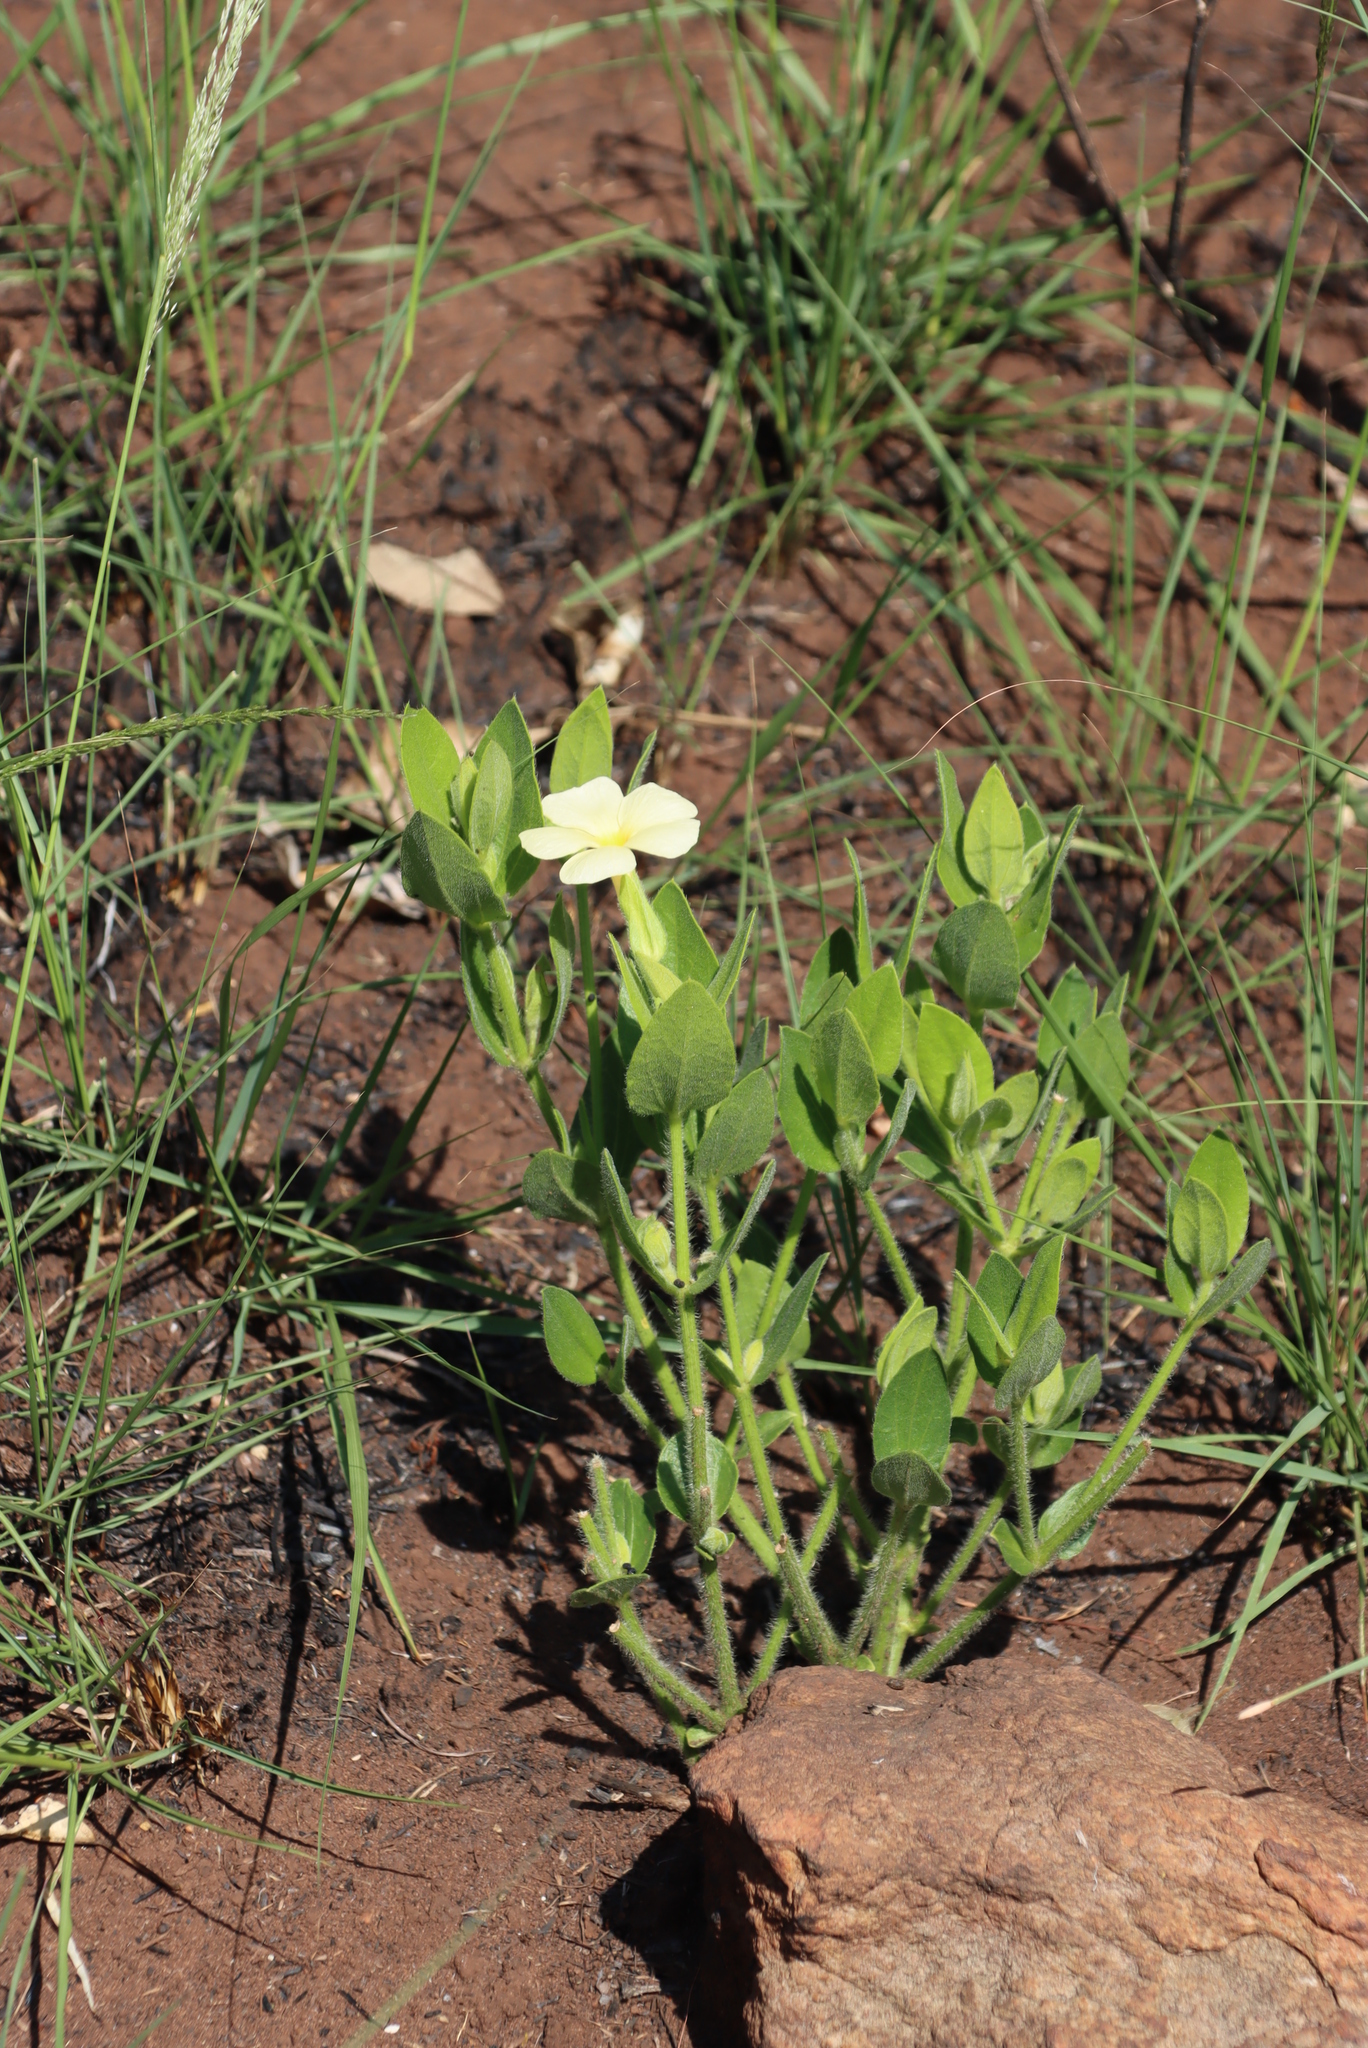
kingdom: Plantae
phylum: Tracheophyta
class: Magnoliopsida
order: Lamiales
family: Acanthaceae
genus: Thunbergia
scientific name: Thunbergia atriplicifolia
